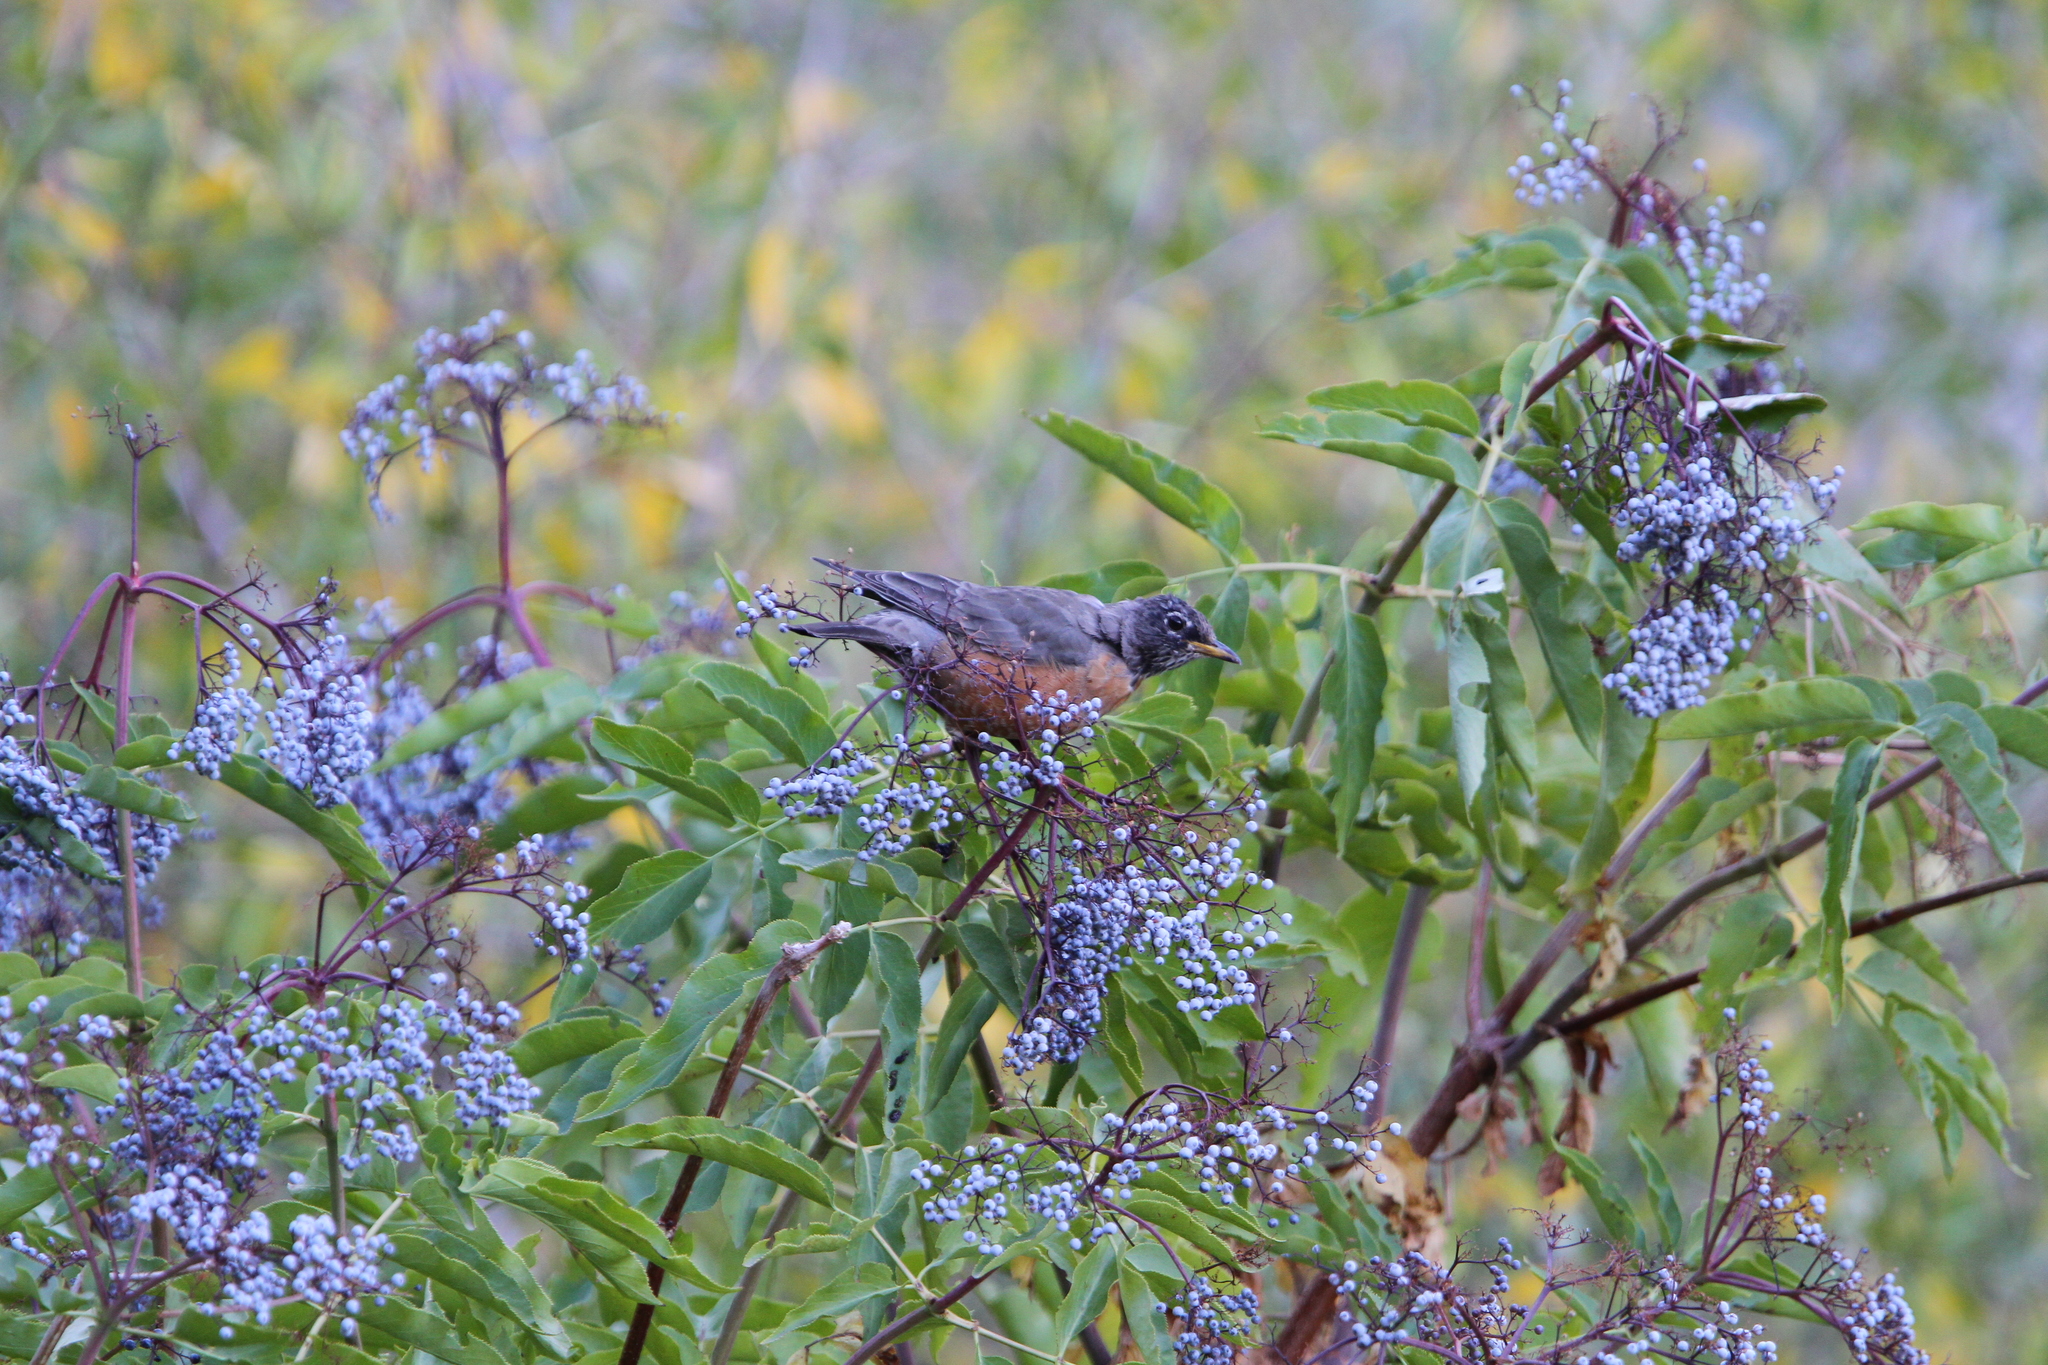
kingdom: Animalia
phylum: Chordata
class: Aves
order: Passeriformes
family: Turdidae
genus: Turdus
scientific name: Turdus migratorius
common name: American robin
